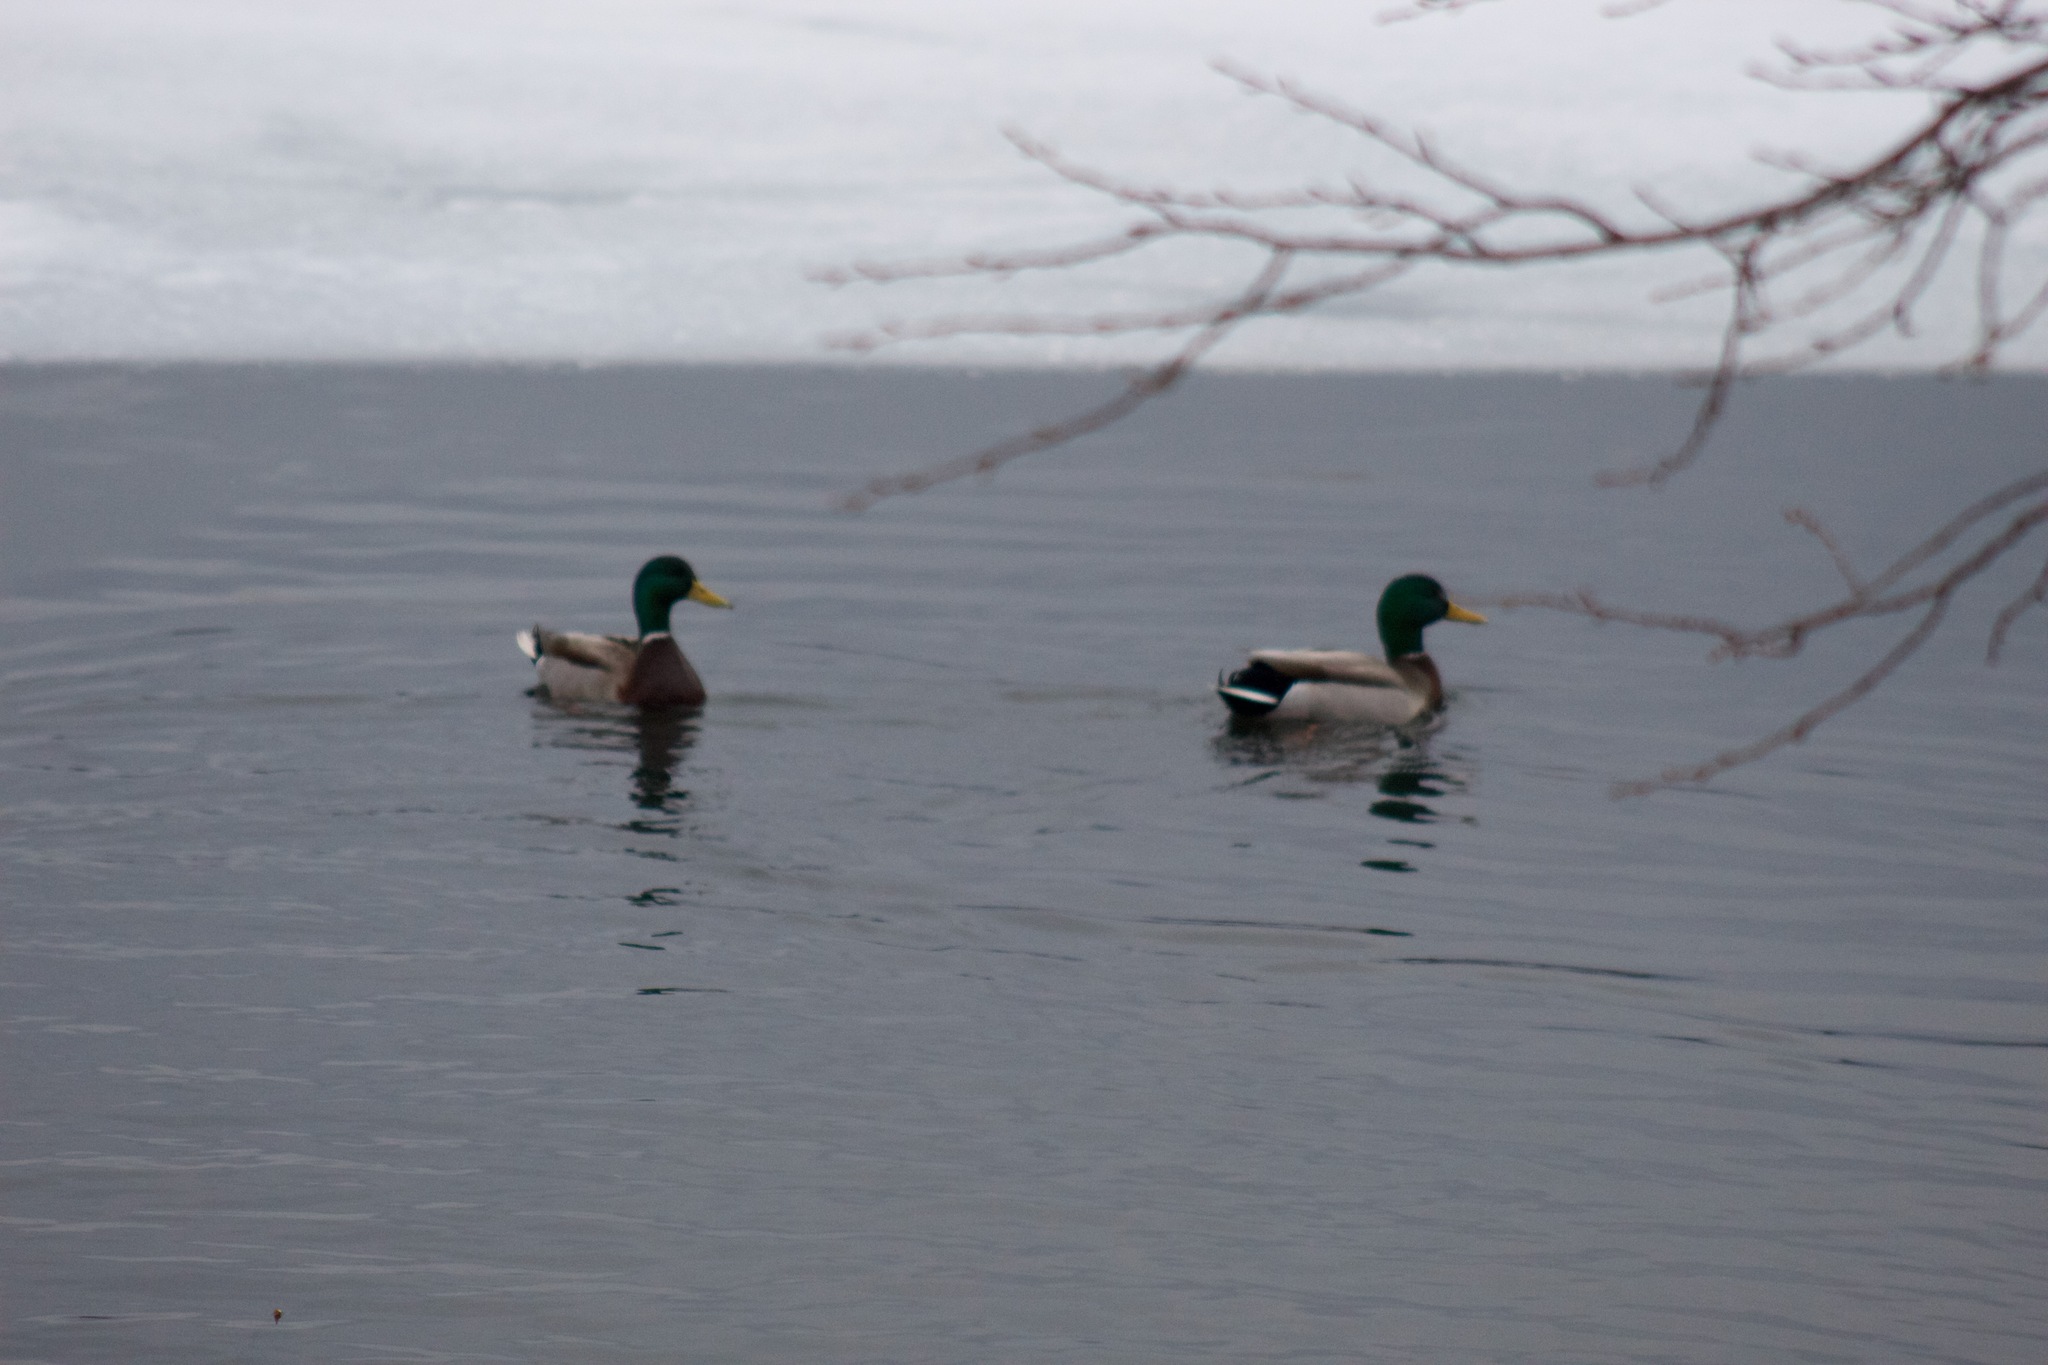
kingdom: Animalia
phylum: Chordata
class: Aves
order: Anseriformes
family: Anatidae
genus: Anas
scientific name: Anas platyrhynchos
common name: Mallard
